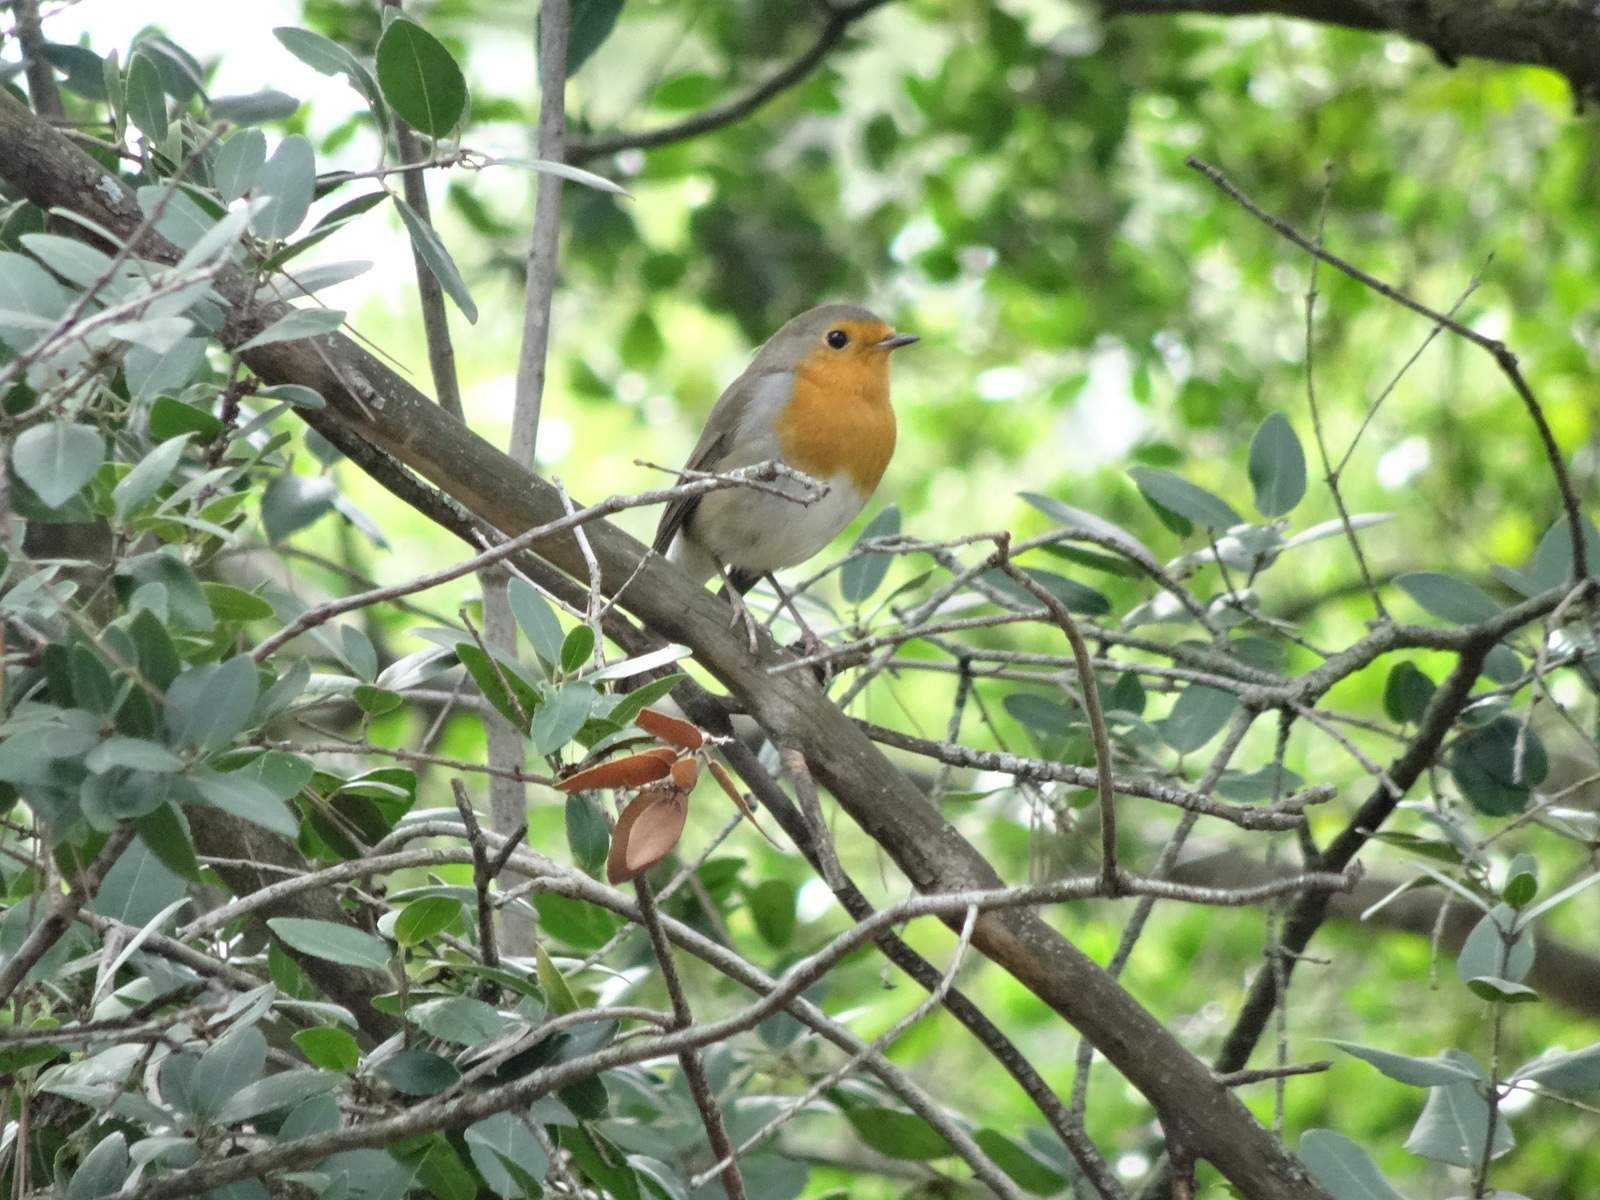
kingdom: Animalia
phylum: Chordata
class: Aves
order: Passeriformes
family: Muscicapidae
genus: Erithacus
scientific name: Erithacus rubecula
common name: European robin
